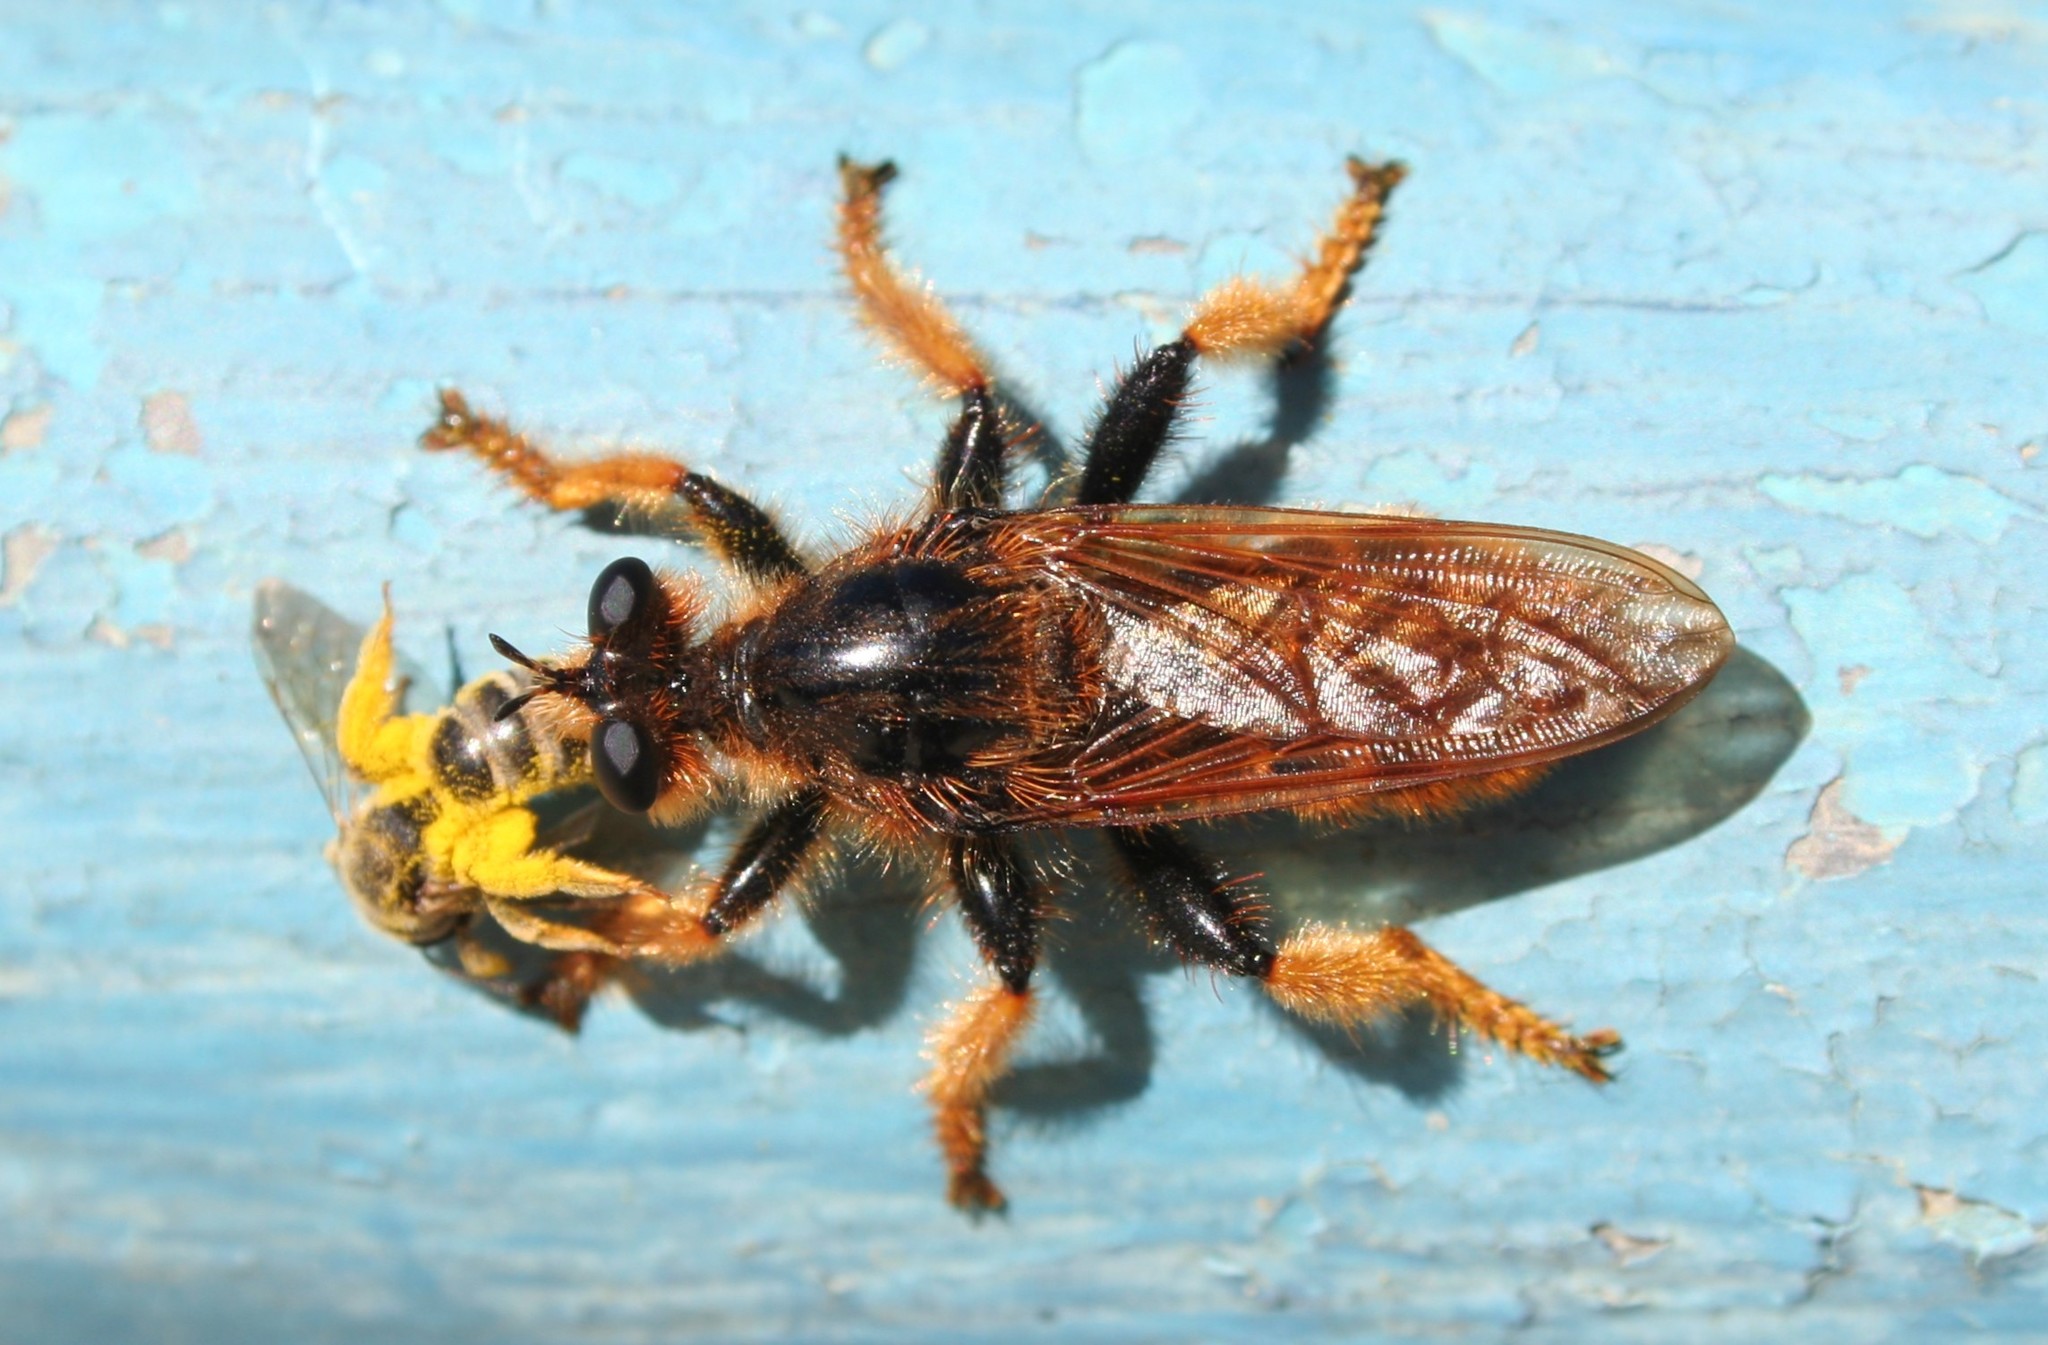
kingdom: Animalia
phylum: Arthropoda
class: Insecta
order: Diptera
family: Asilidae
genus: Pogonosoma
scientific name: Pogonosoma maroccanum
